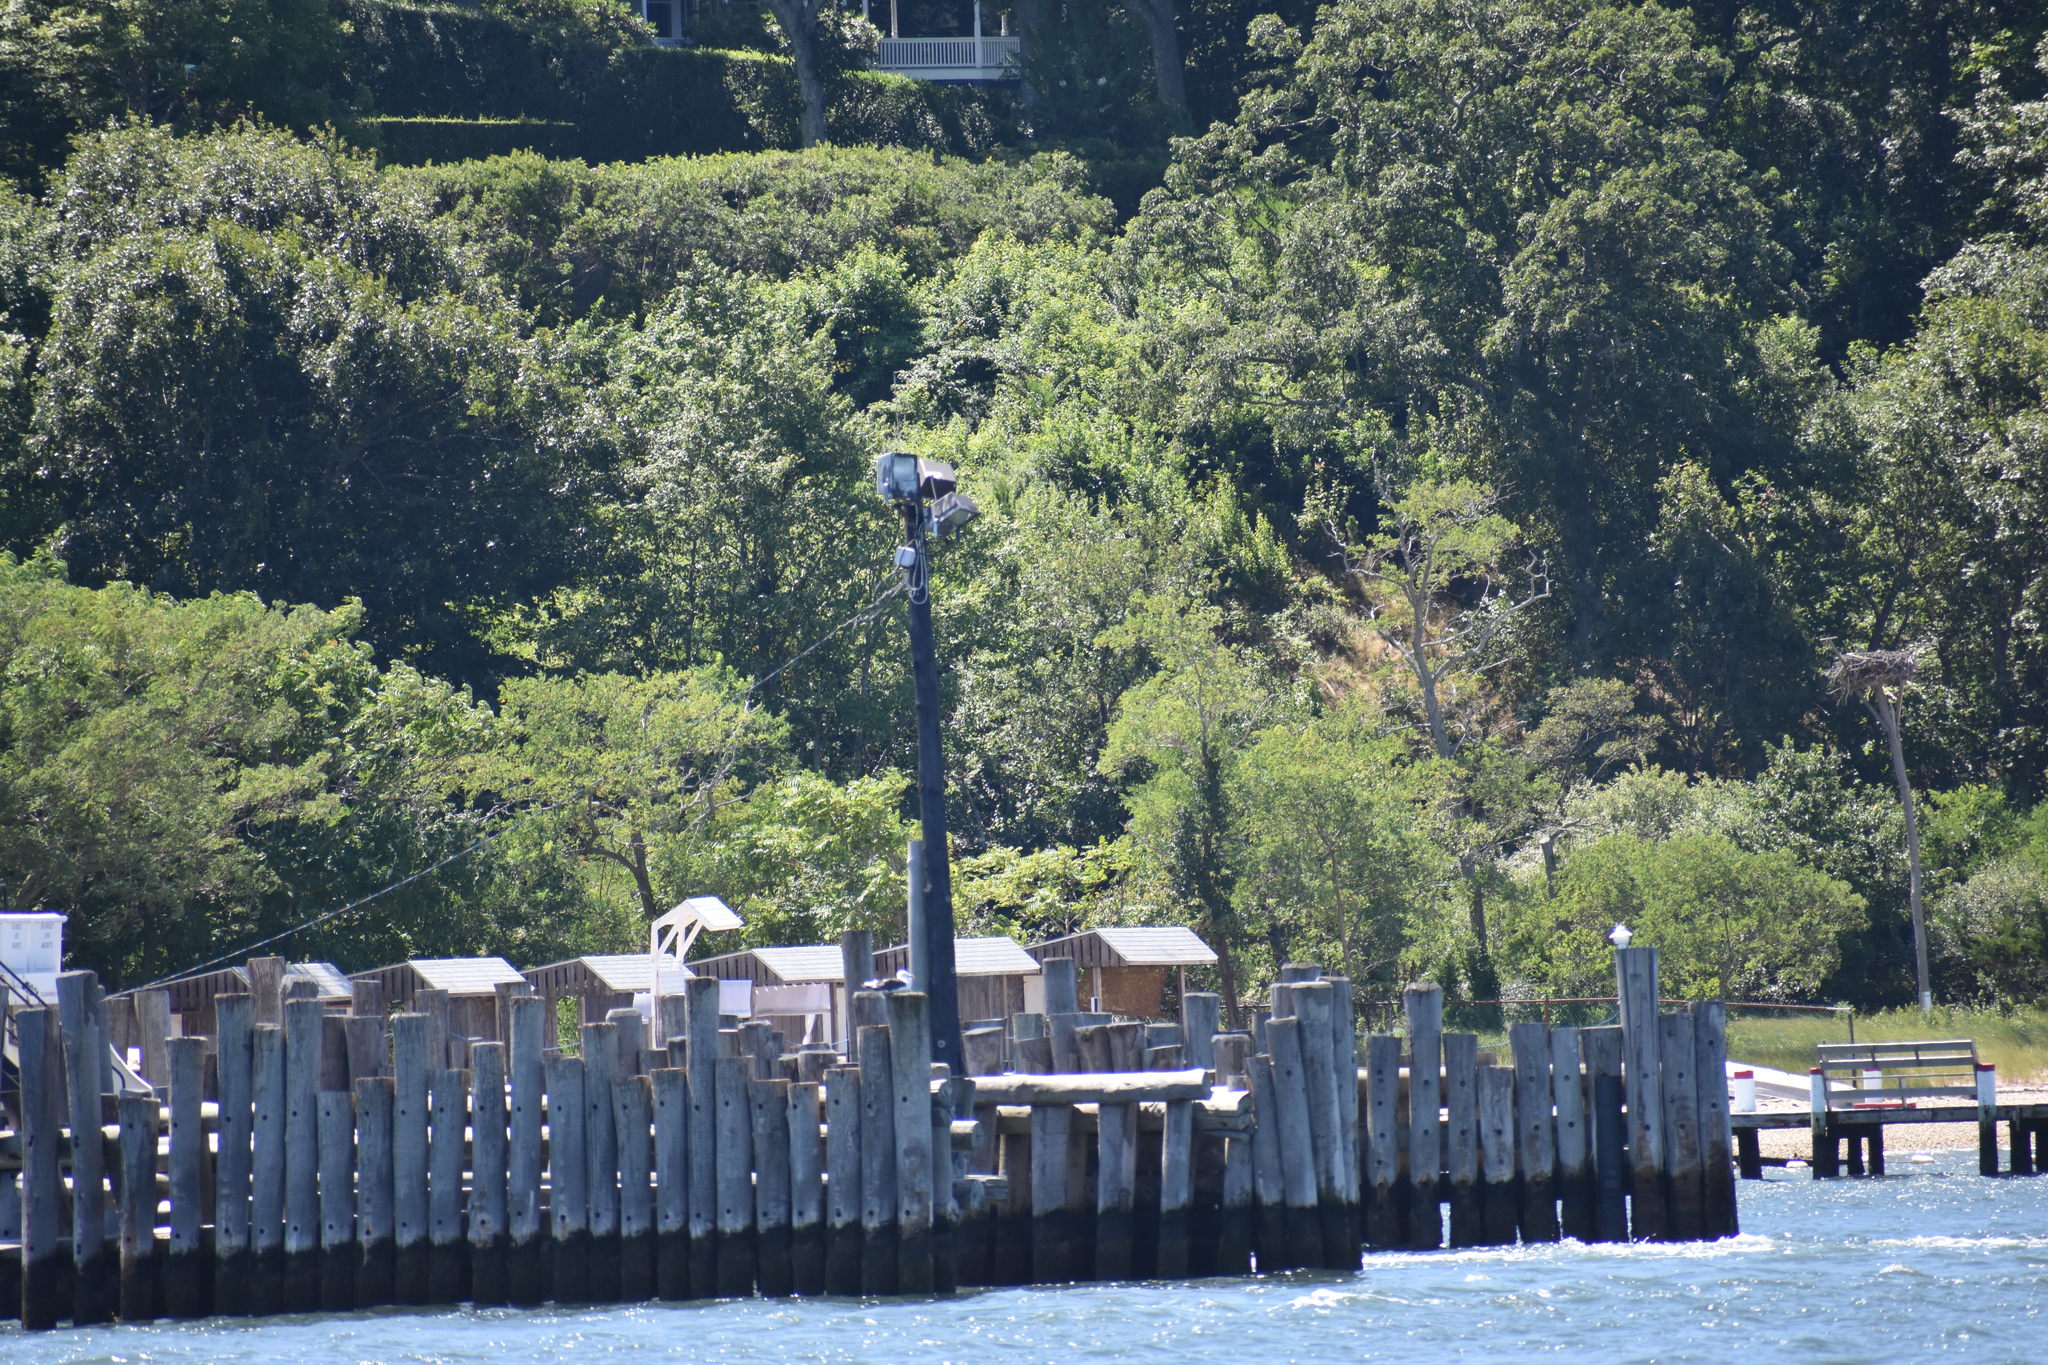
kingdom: Animalia
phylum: Chordata
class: Aves
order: Accipitriformes
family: Pandionidae
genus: Pandion
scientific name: Pandion haliaetus
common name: Osprey
